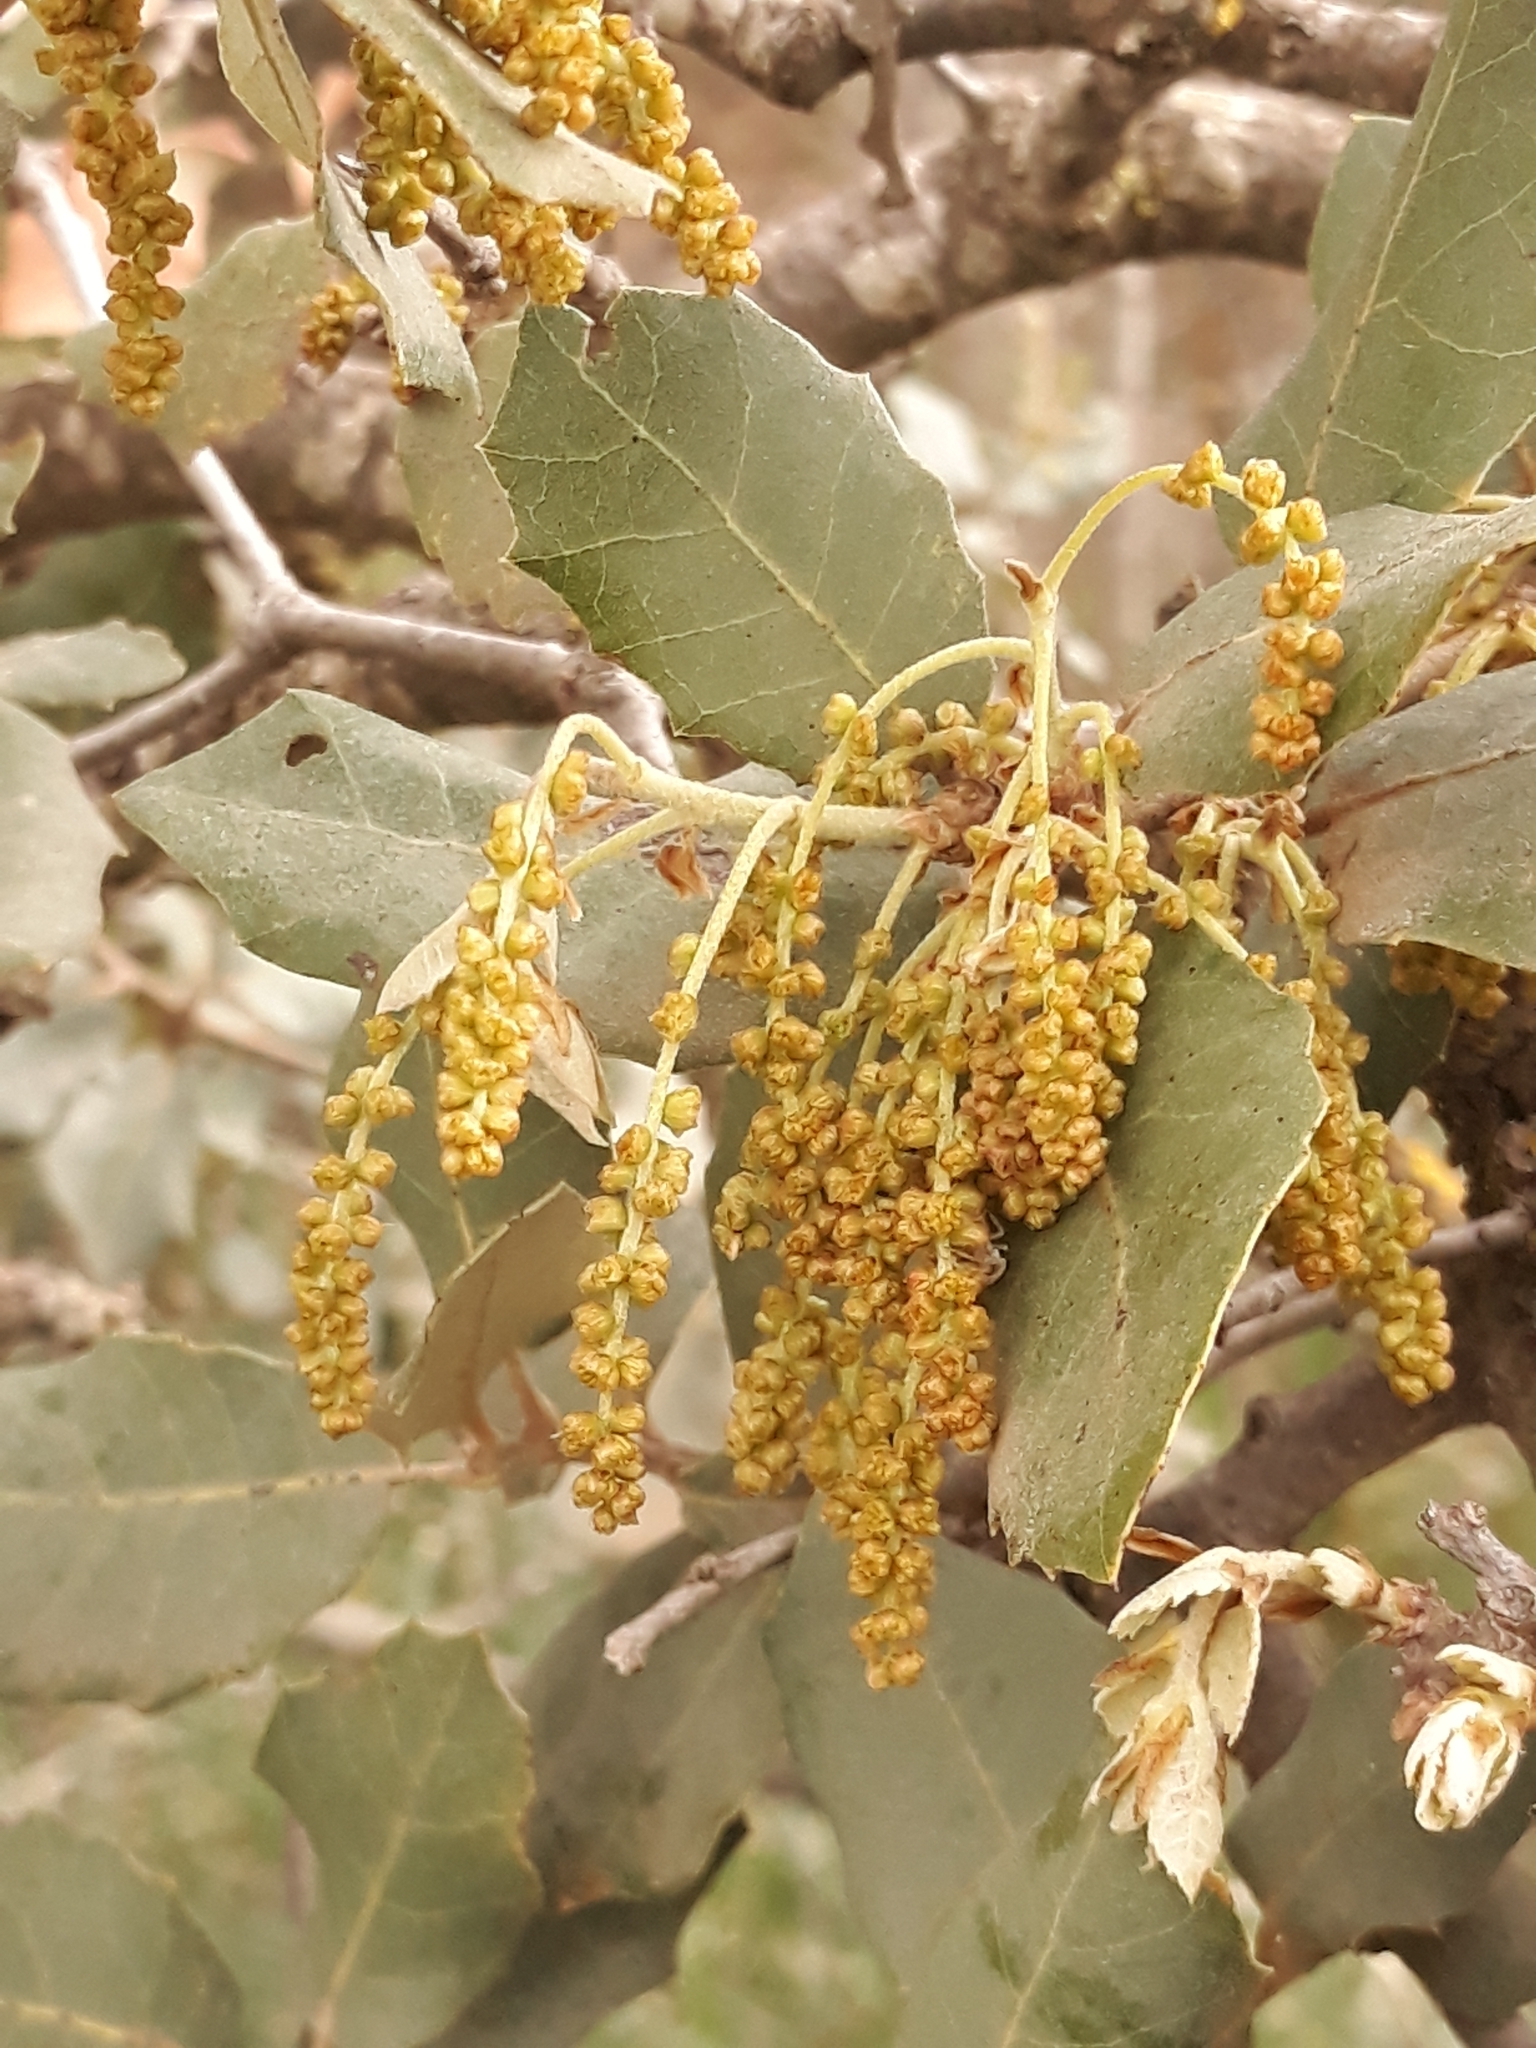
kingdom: Plantae
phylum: Tracheophyta
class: Magnoliopsida
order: Fagales
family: Fagaceae
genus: Quercus
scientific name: Quercus rotundifolia
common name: Holm oak
